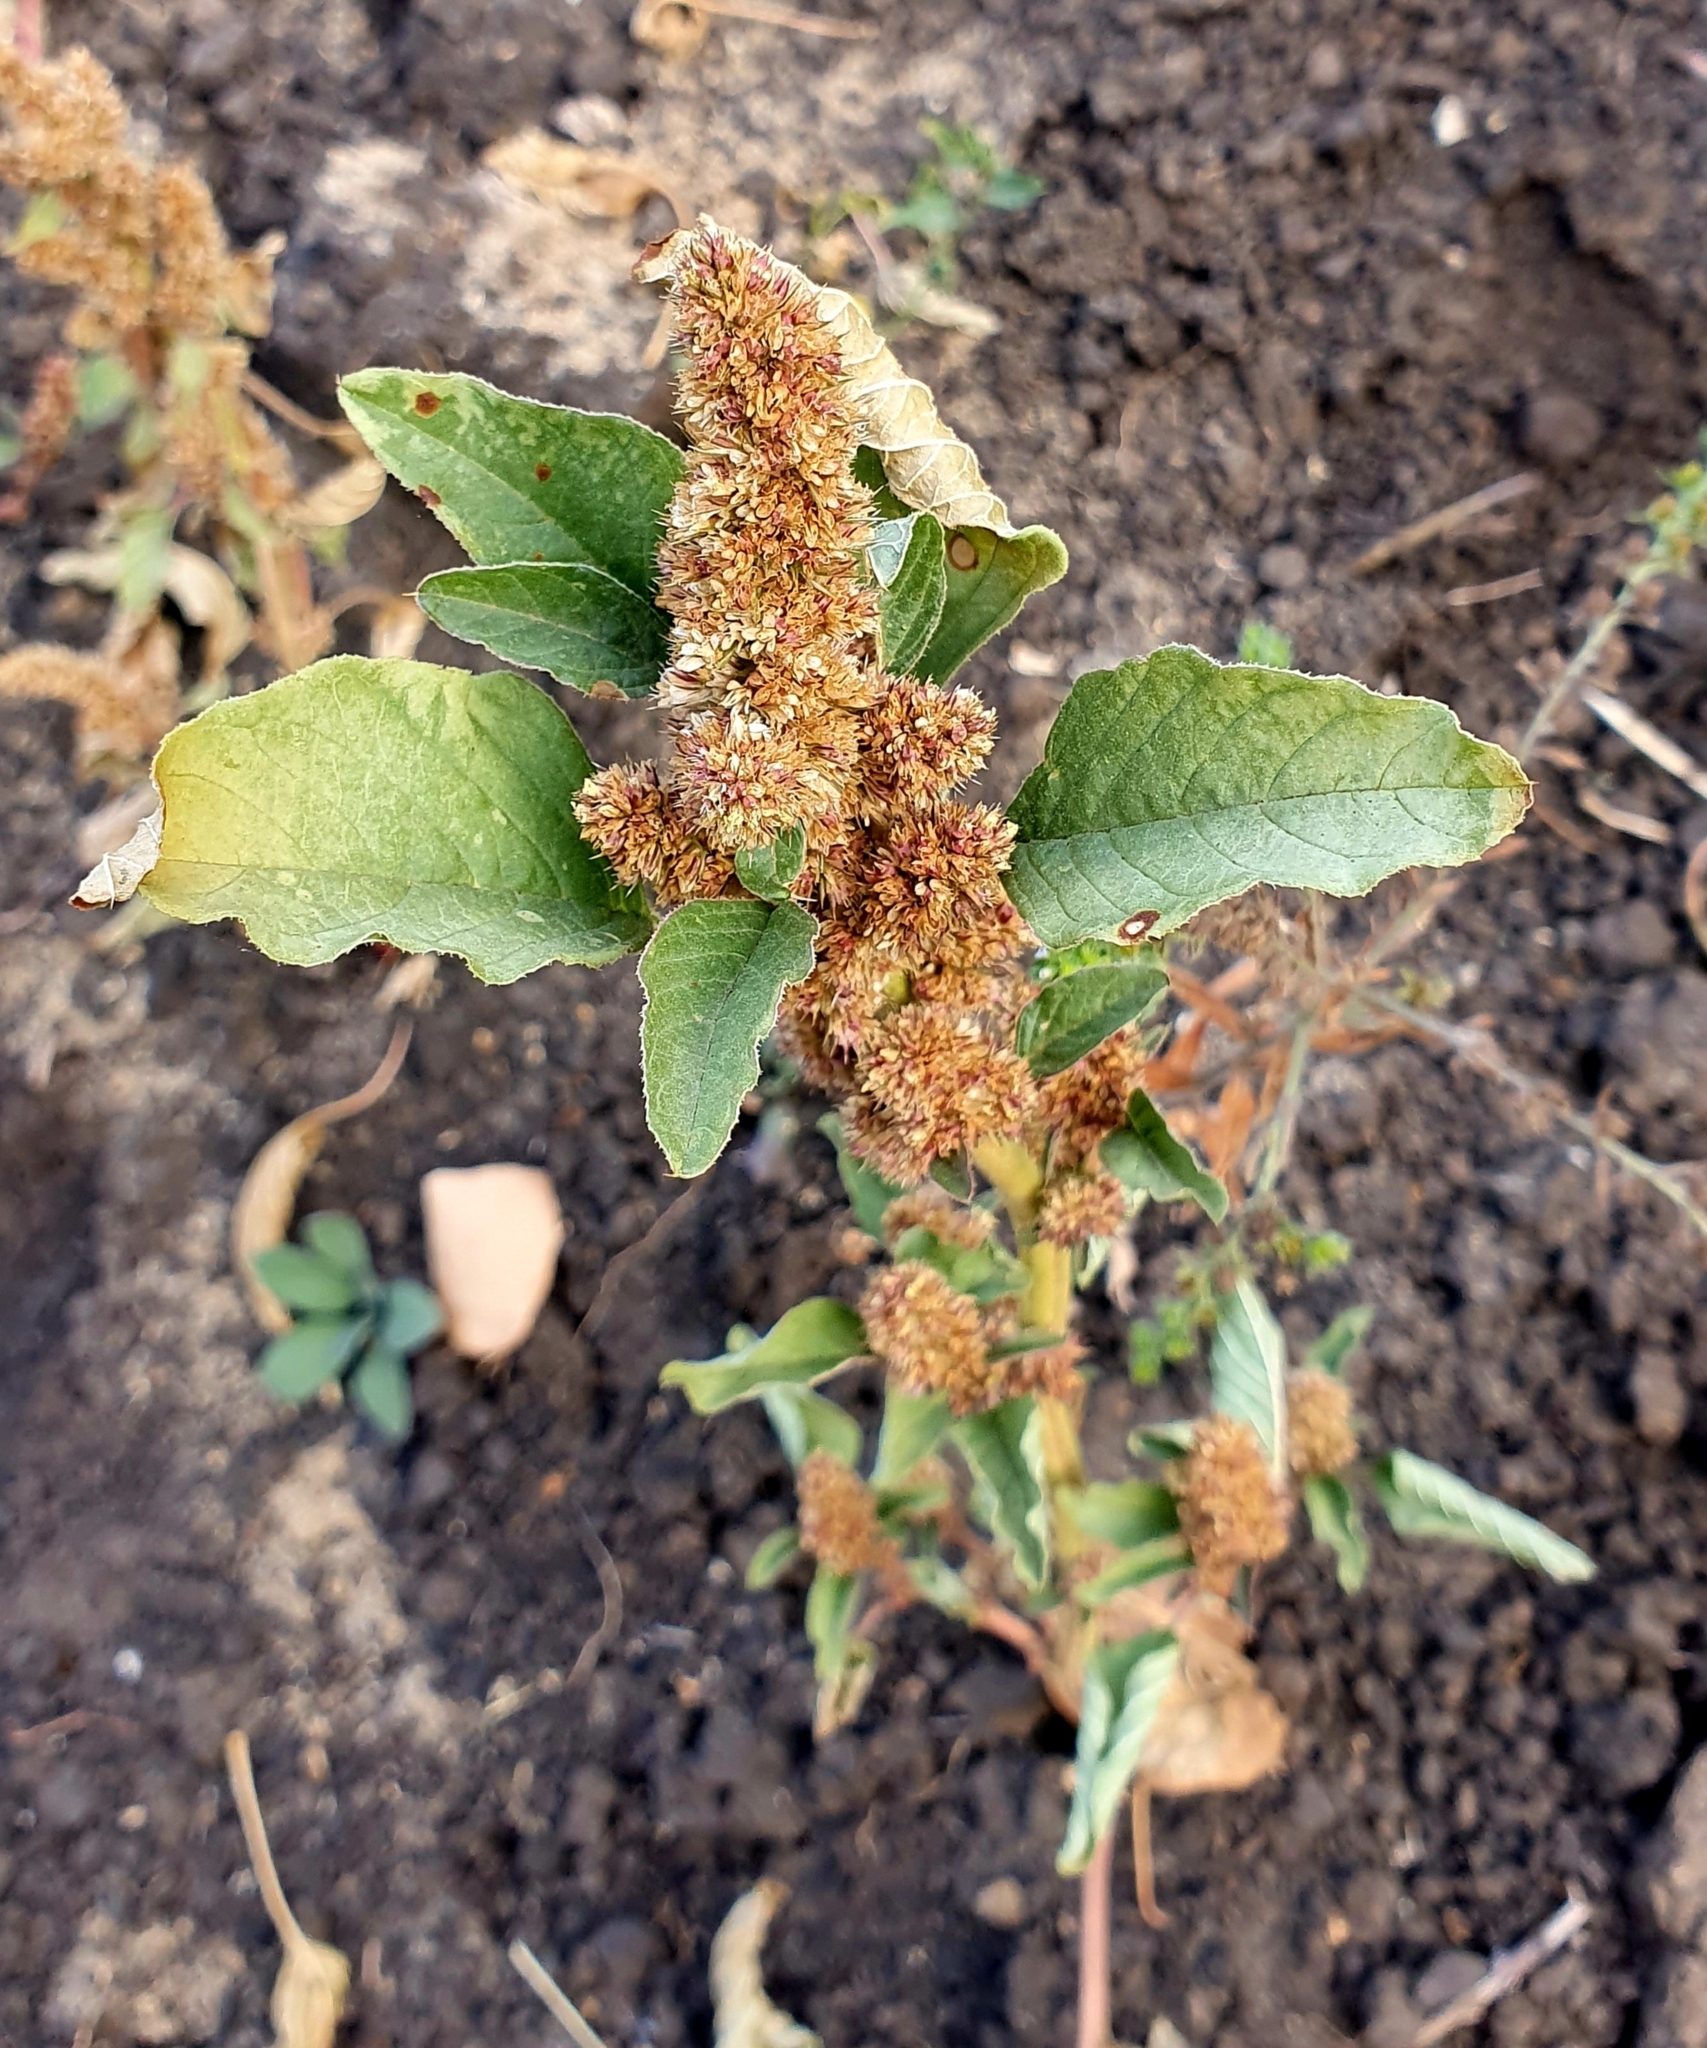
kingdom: Plantae
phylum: Tracheophyta
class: Magnoliopsida
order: Caryophyllales
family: Amaranthaceae
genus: Amaranthus
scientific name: Amaranthus retroflexus
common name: Redroot amaranth
